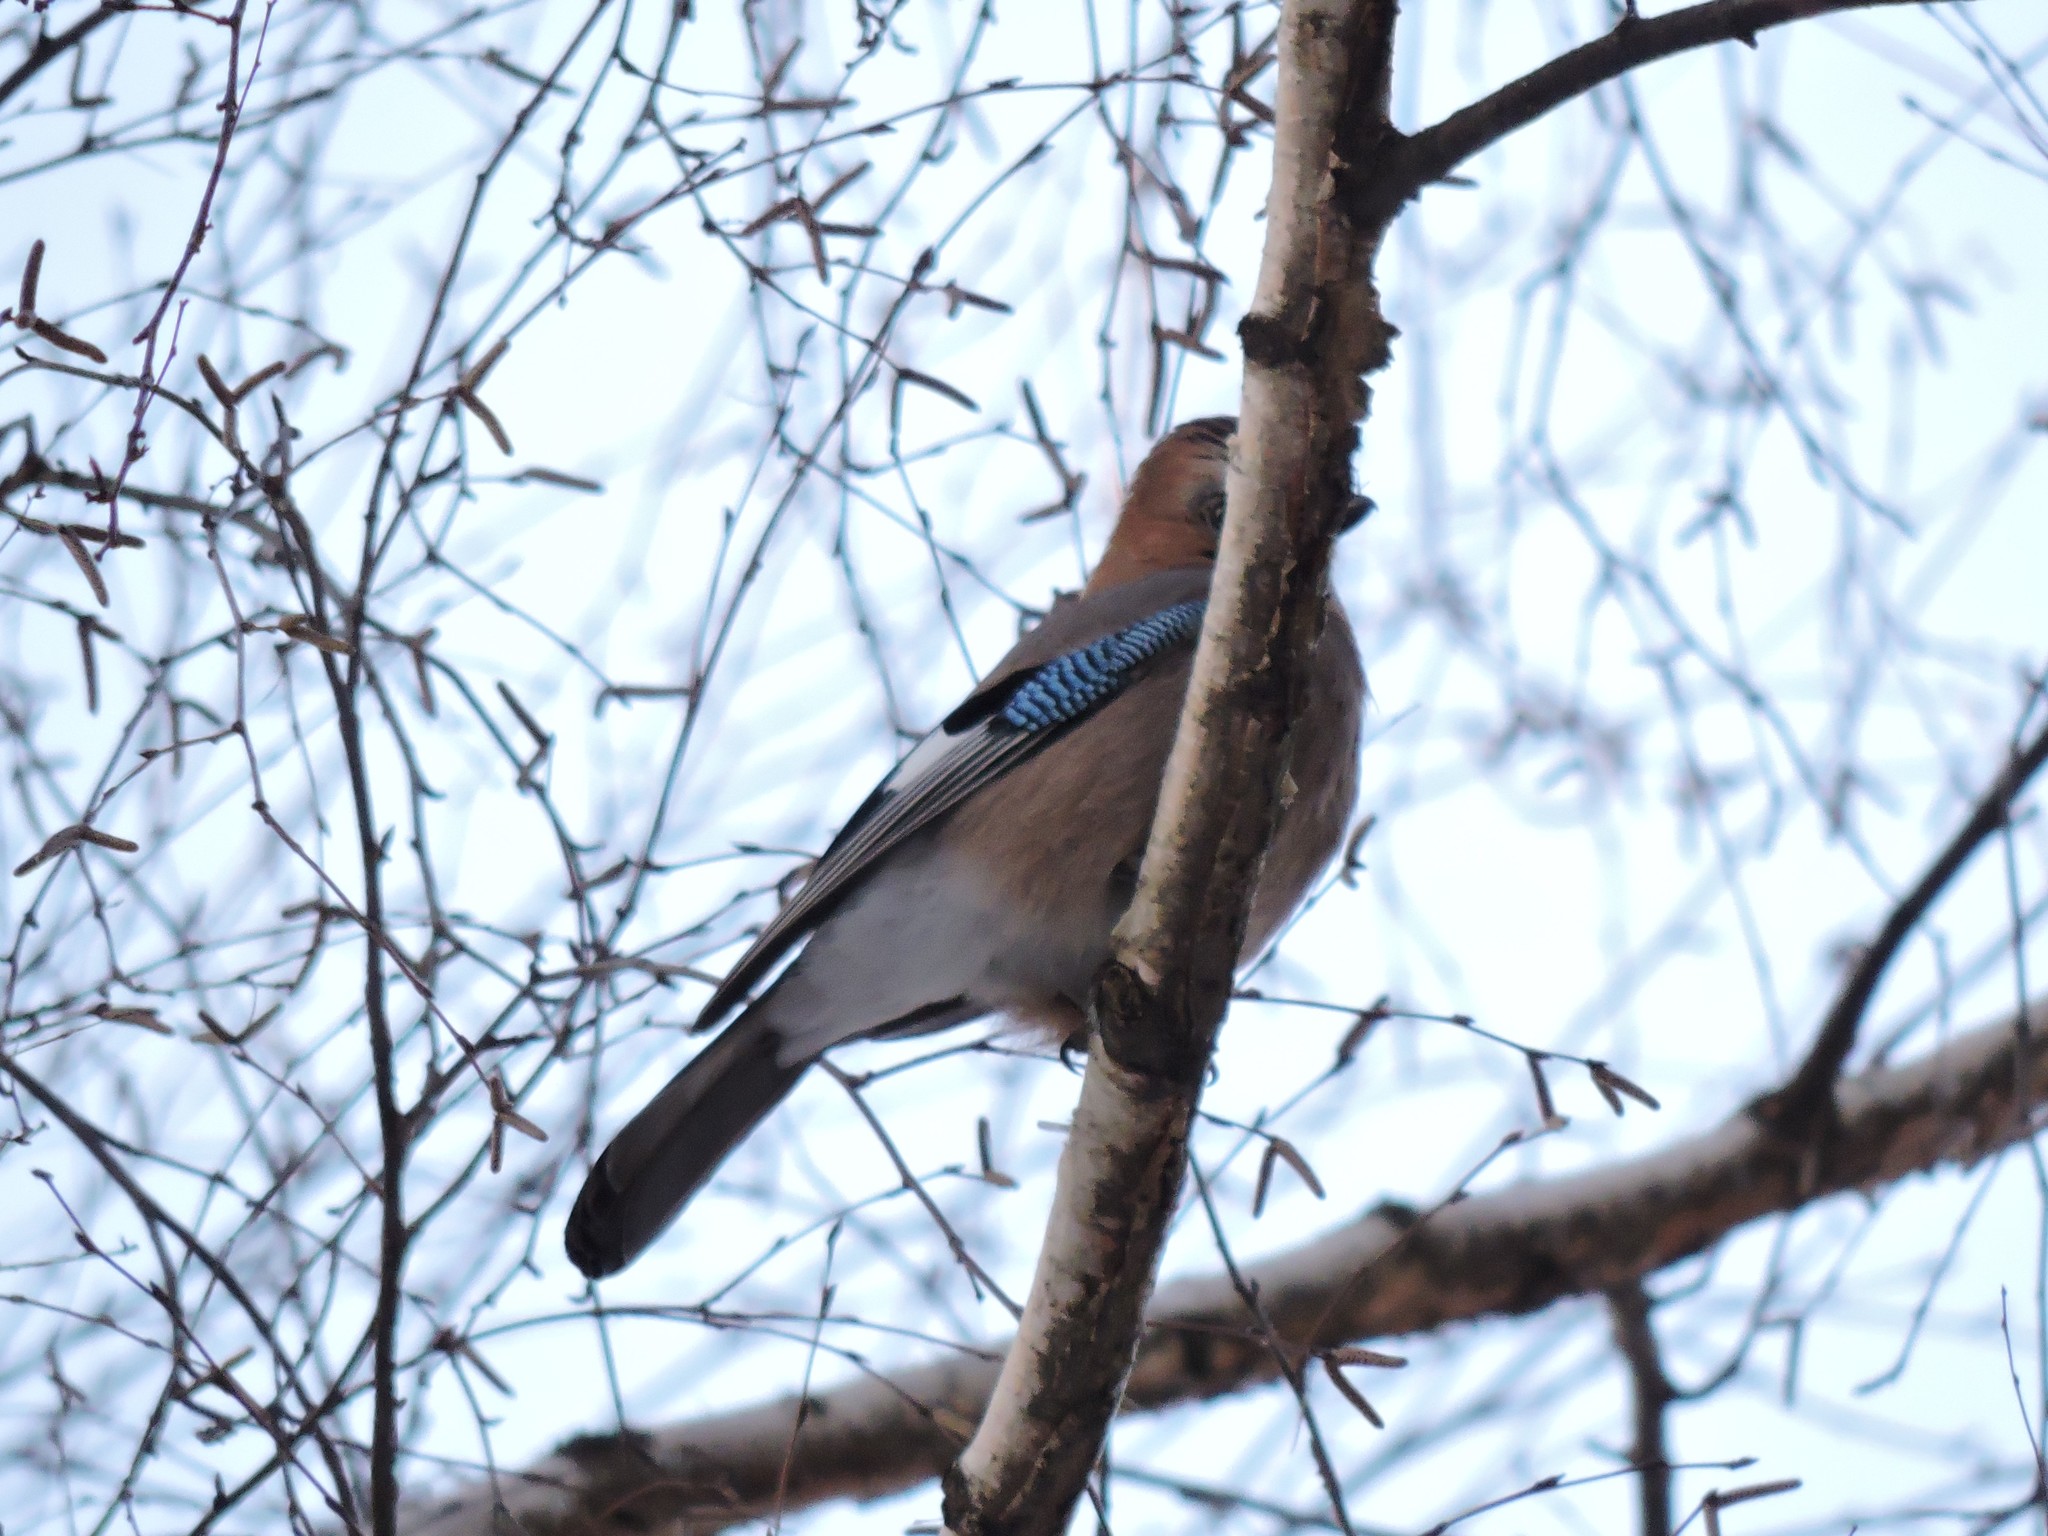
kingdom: Animalia
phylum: Chordata
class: Aves
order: Passeriformes
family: Corvidae
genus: Garrulus
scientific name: Garrulus glandarius
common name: Eurasian jay
